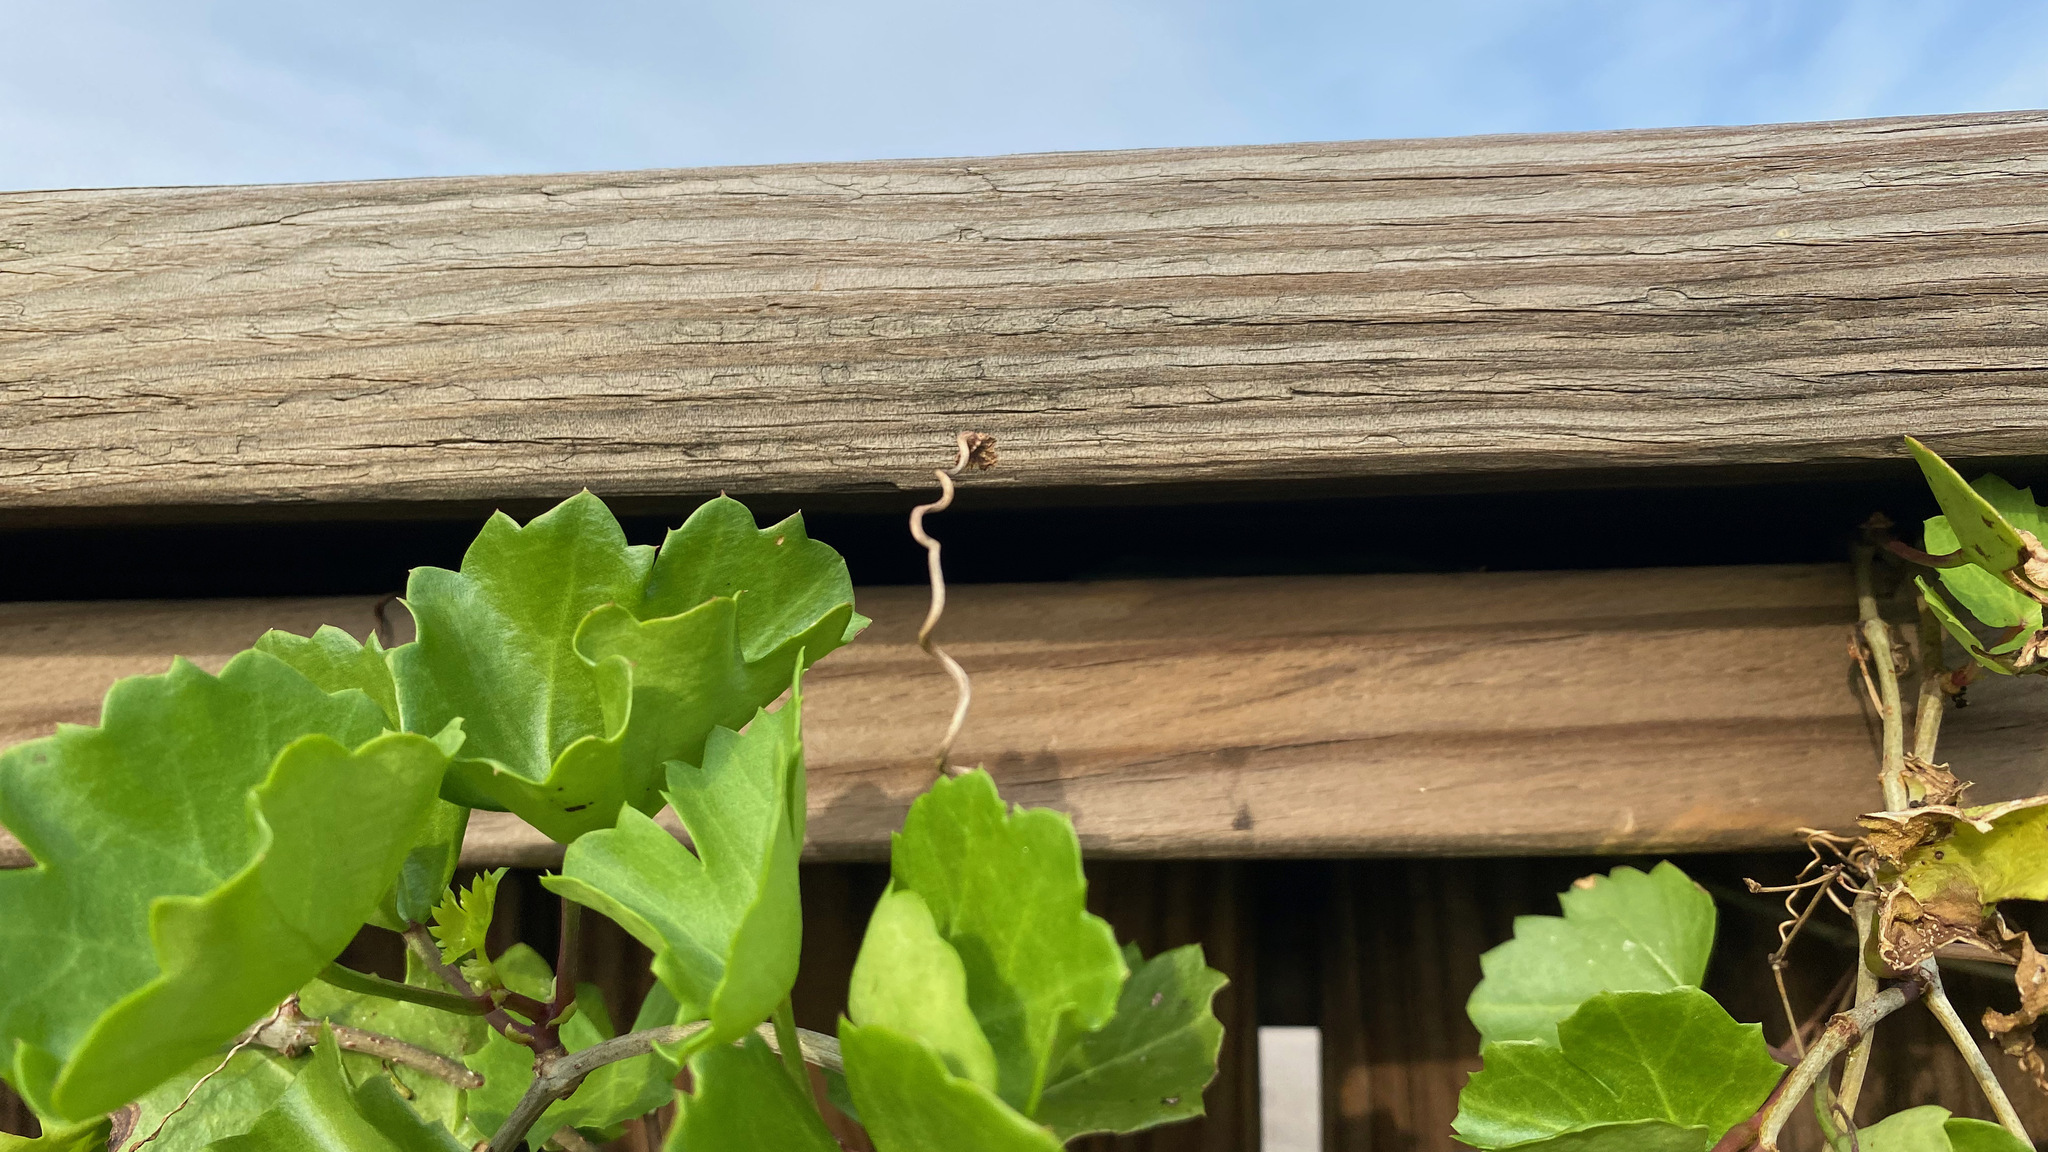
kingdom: Plantae
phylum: Tracheophyta
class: Magnoliopsida
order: Vitales
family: Vitaceae
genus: Cissus
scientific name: Cissus trifoliata
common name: Vine-sorrel
